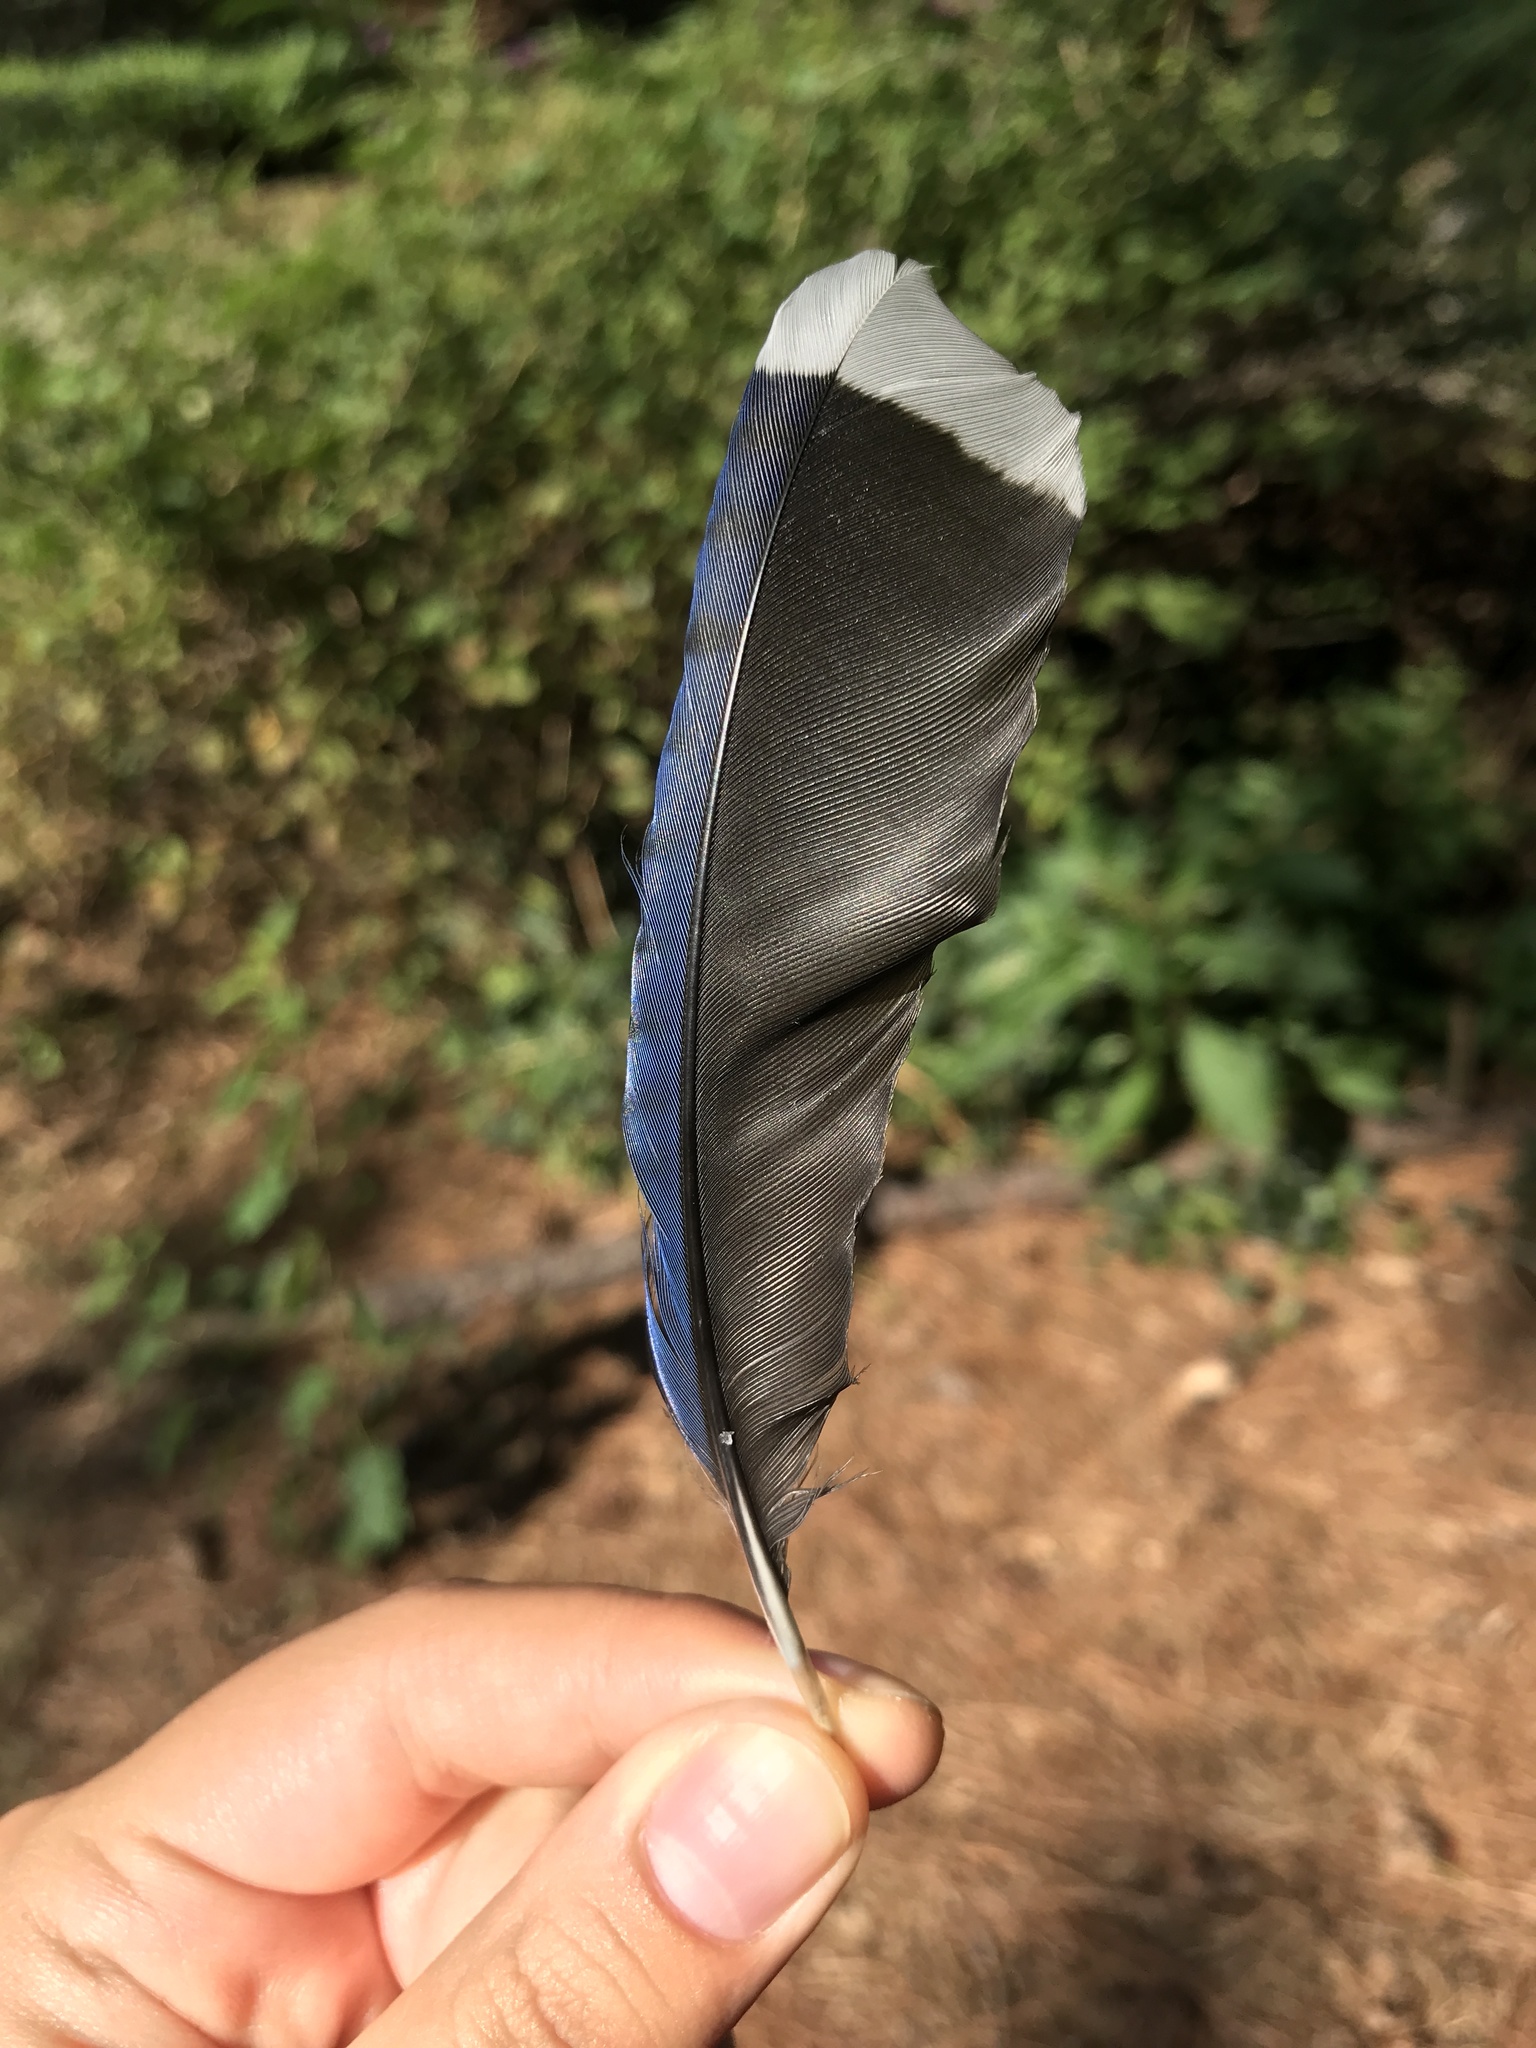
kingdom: Animalia
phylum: Chordata
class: Aves
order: Passeriformes
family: Corvidae
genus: Cyanocitta
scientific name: Cyanocitta cristata
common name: Blue jay
